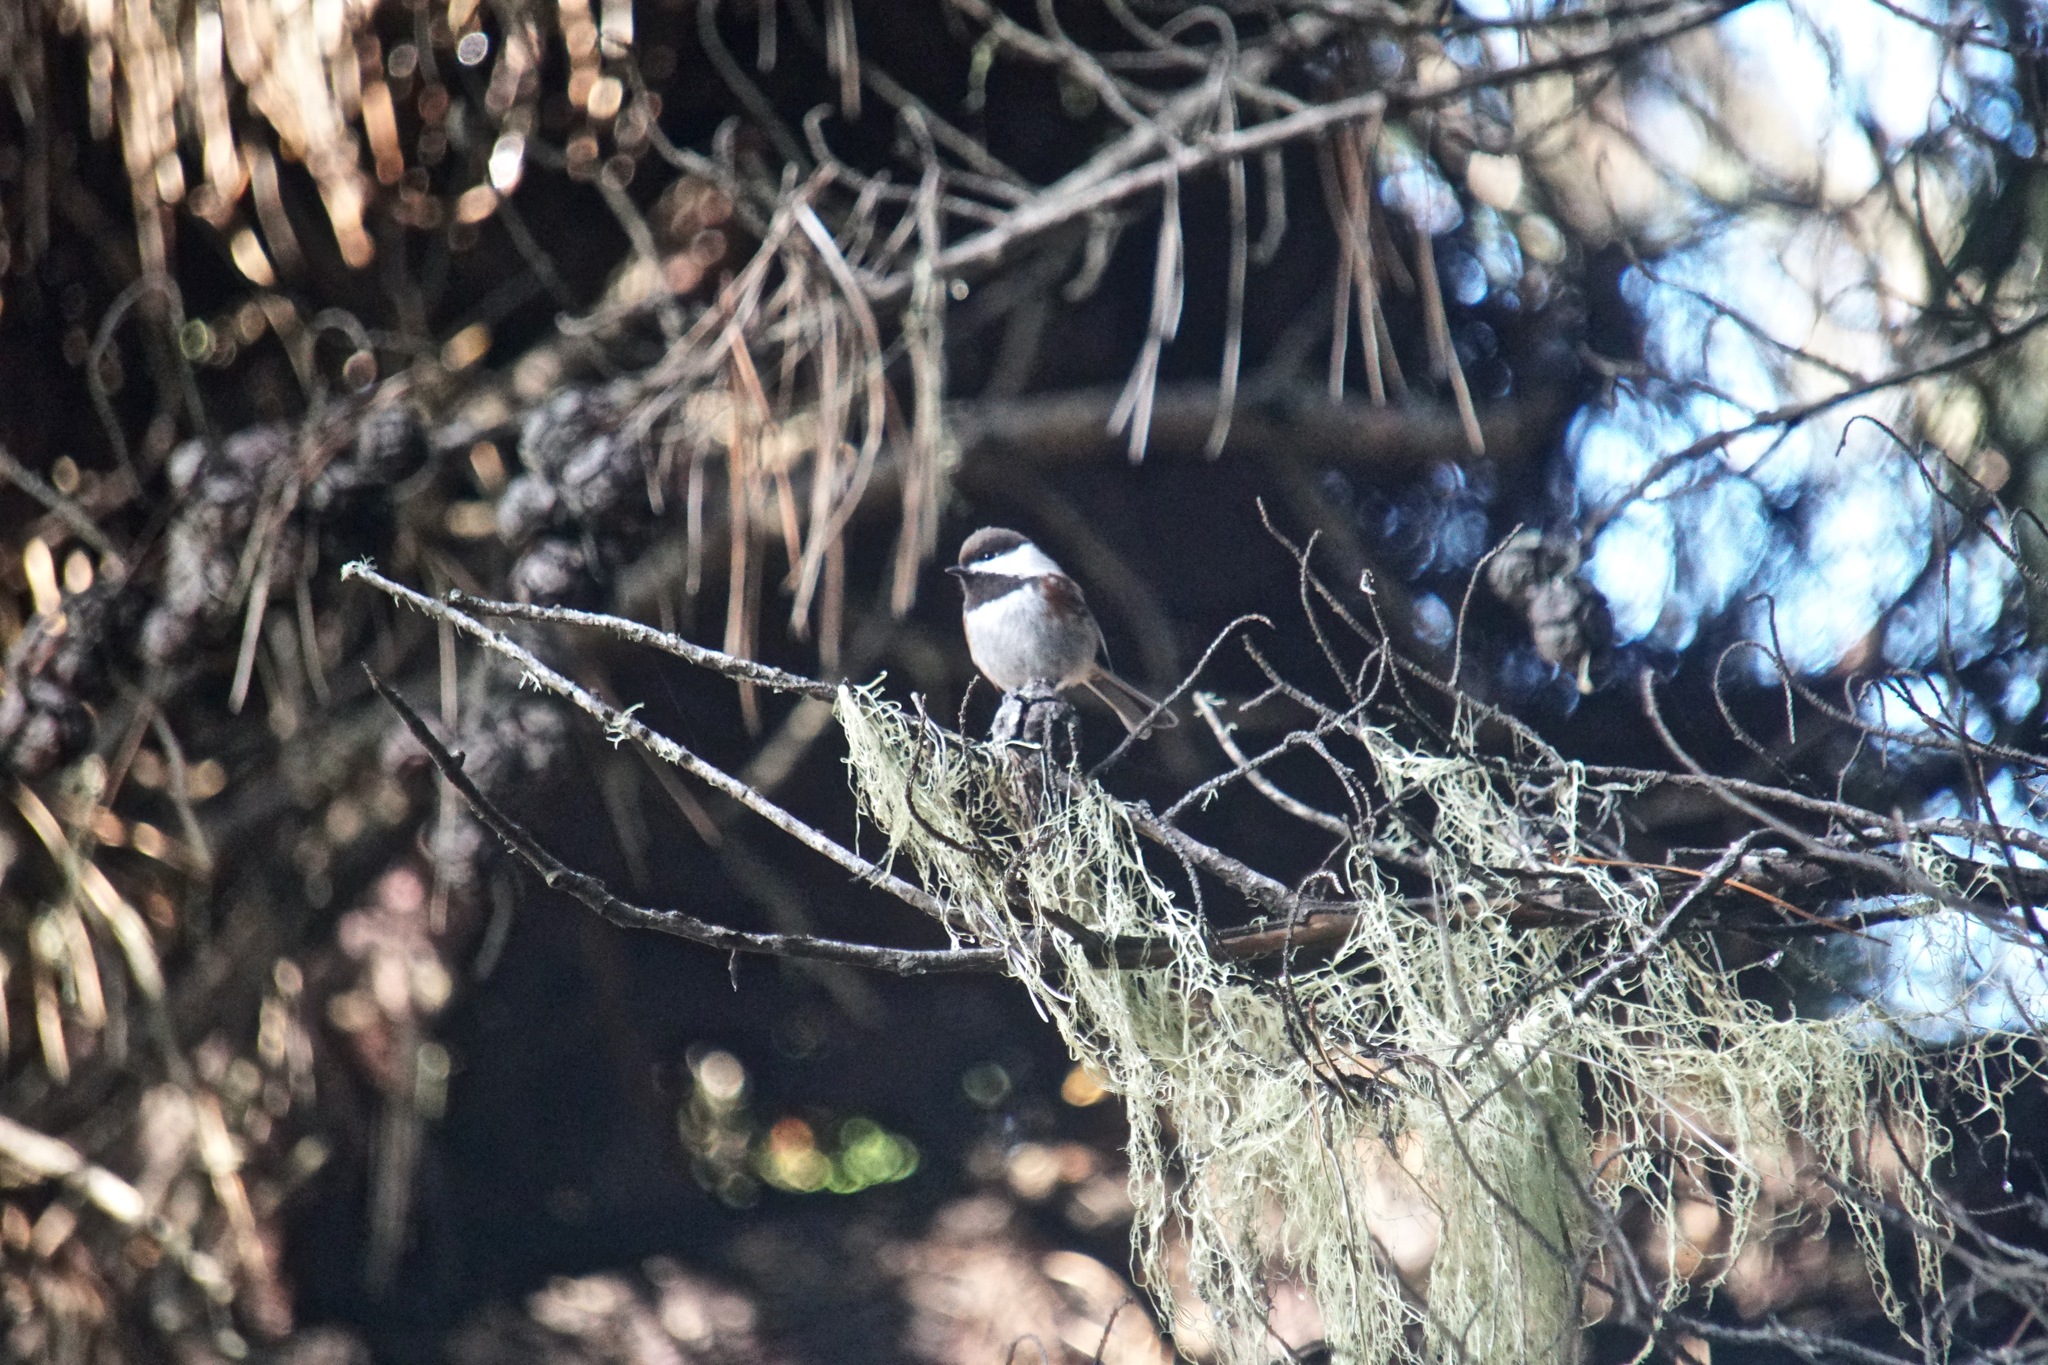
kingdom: Animalia
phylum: Chordata
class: Aves
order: Passeriformes
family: Paridae
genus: Poecile
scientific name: Poecile rufescens
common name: Chestnut-backed chickadee
